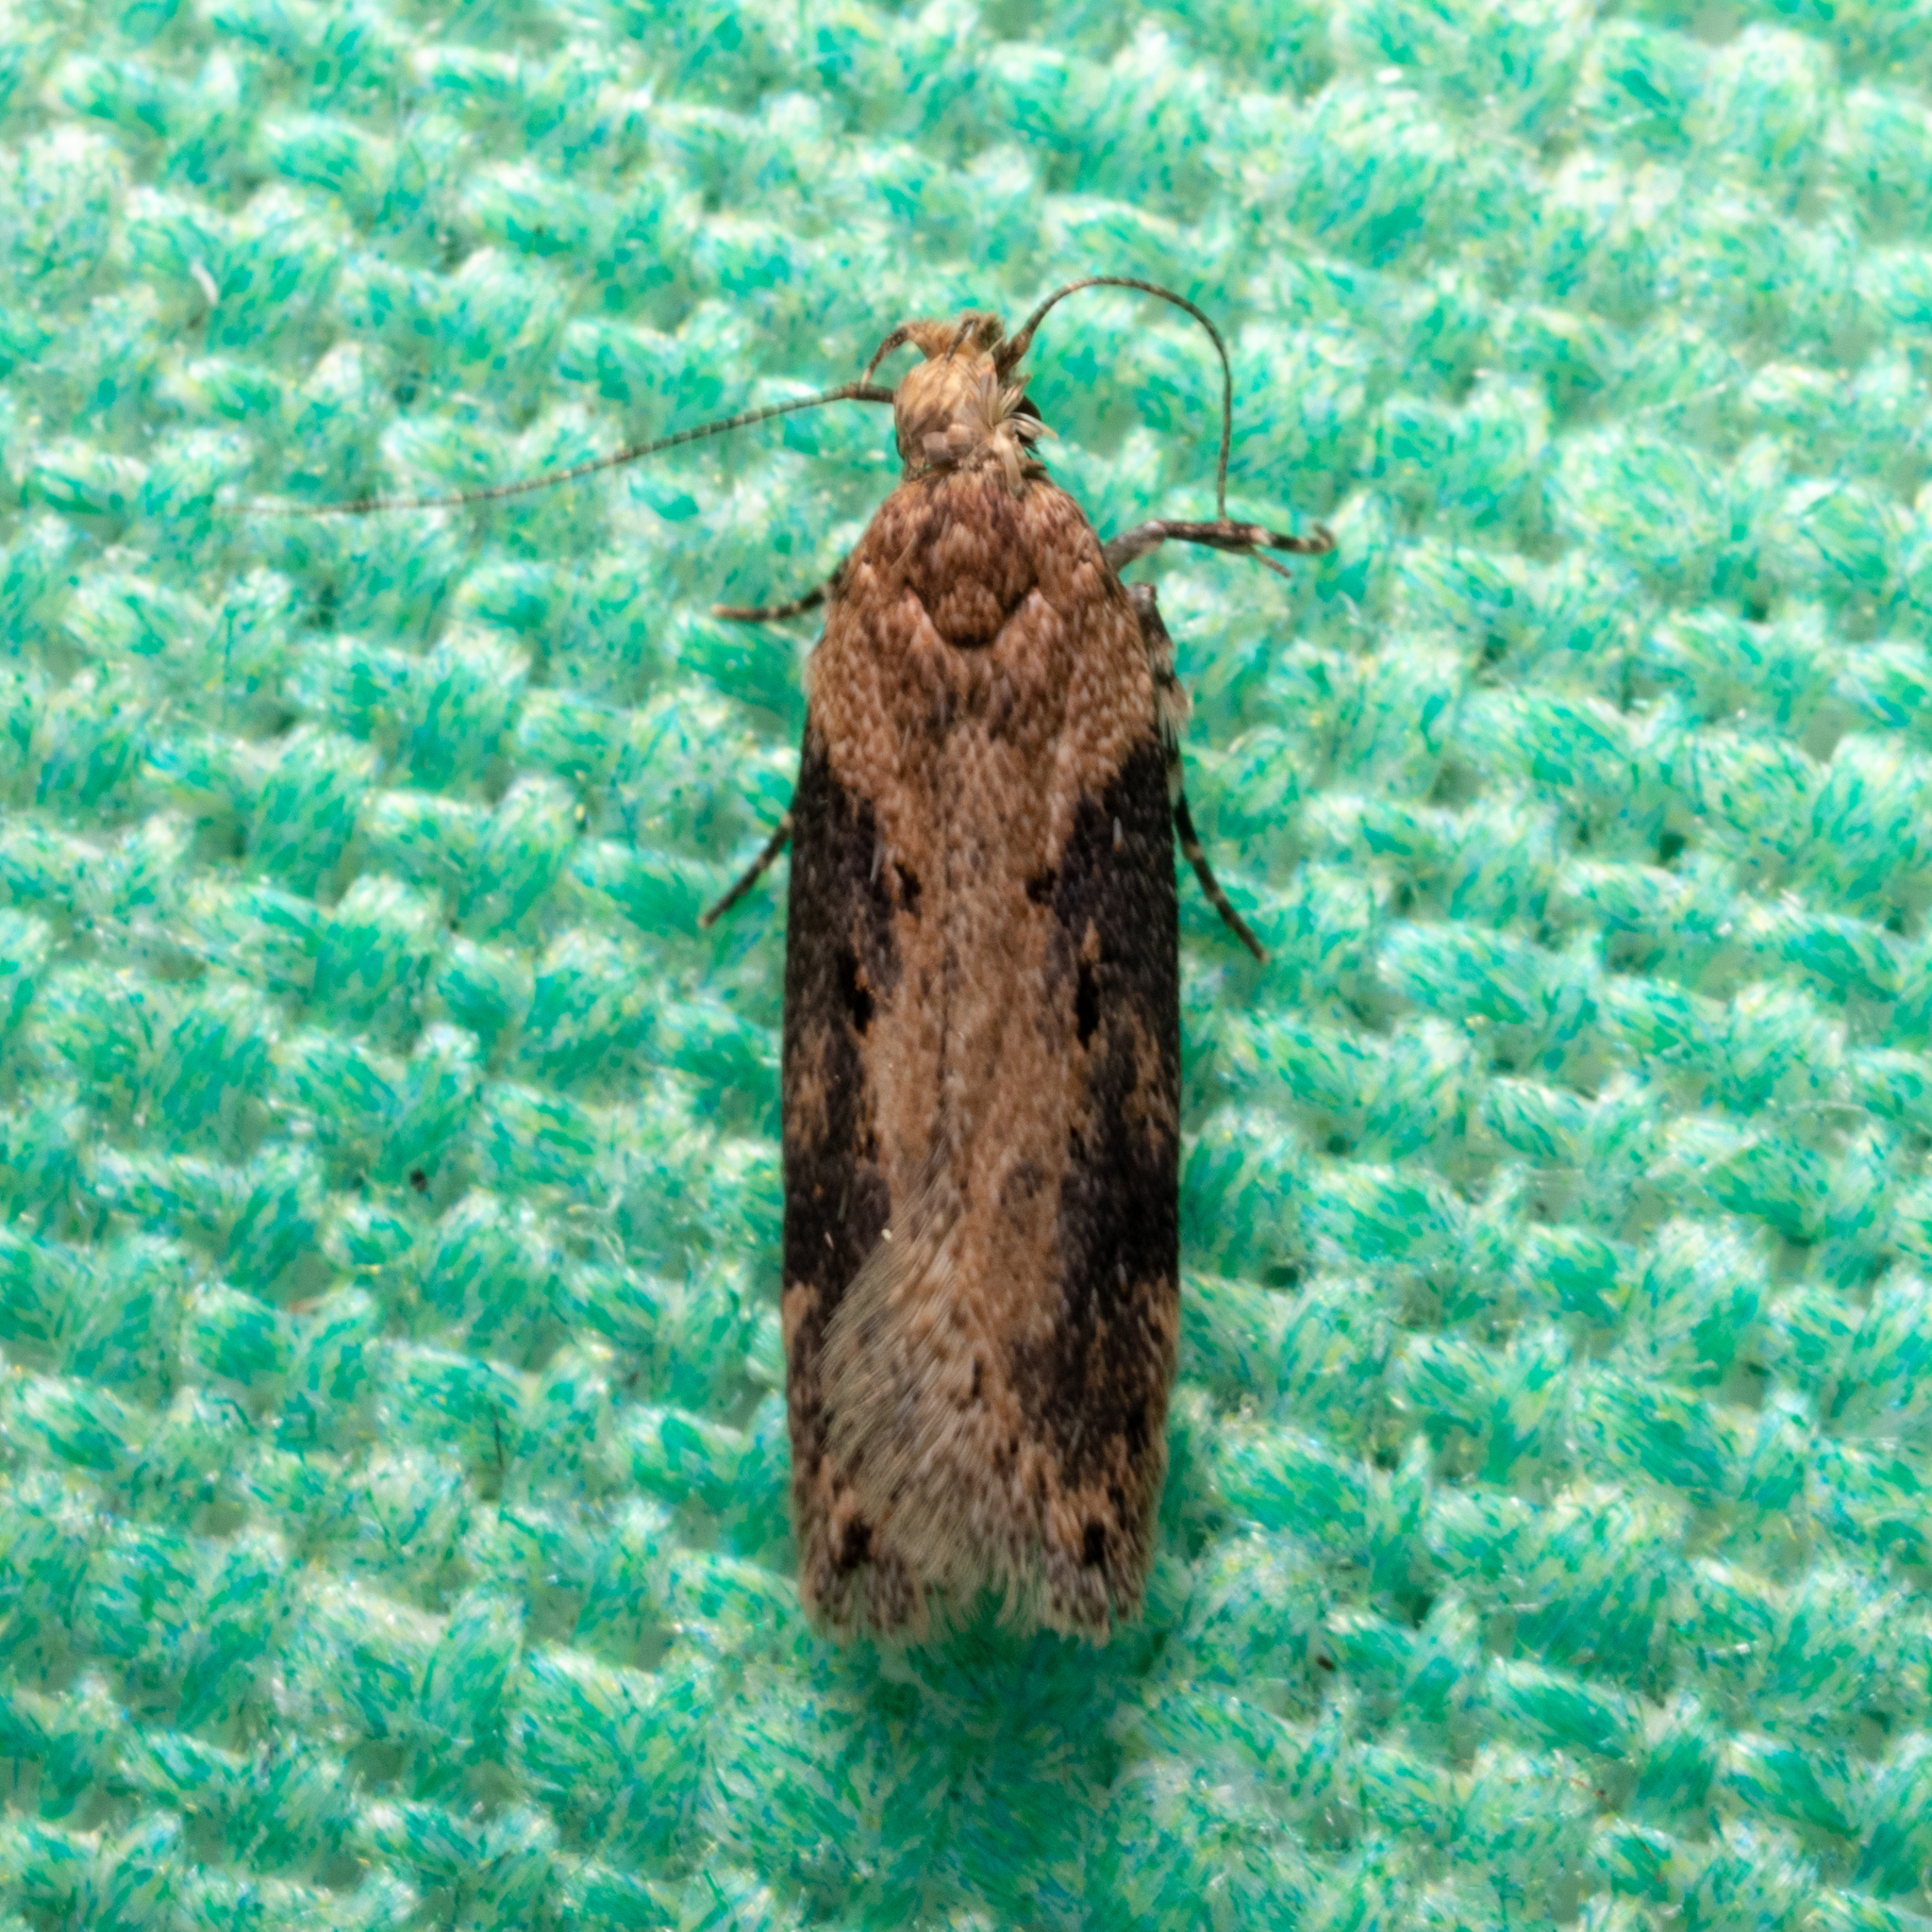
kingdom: Animalia
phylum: Arthropoda
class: Insecta
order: Lepidoptera
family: Gelechiidae
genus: Chionodes
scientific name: Chionodes mediofuscella
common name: Black-smudged chionodes moth
